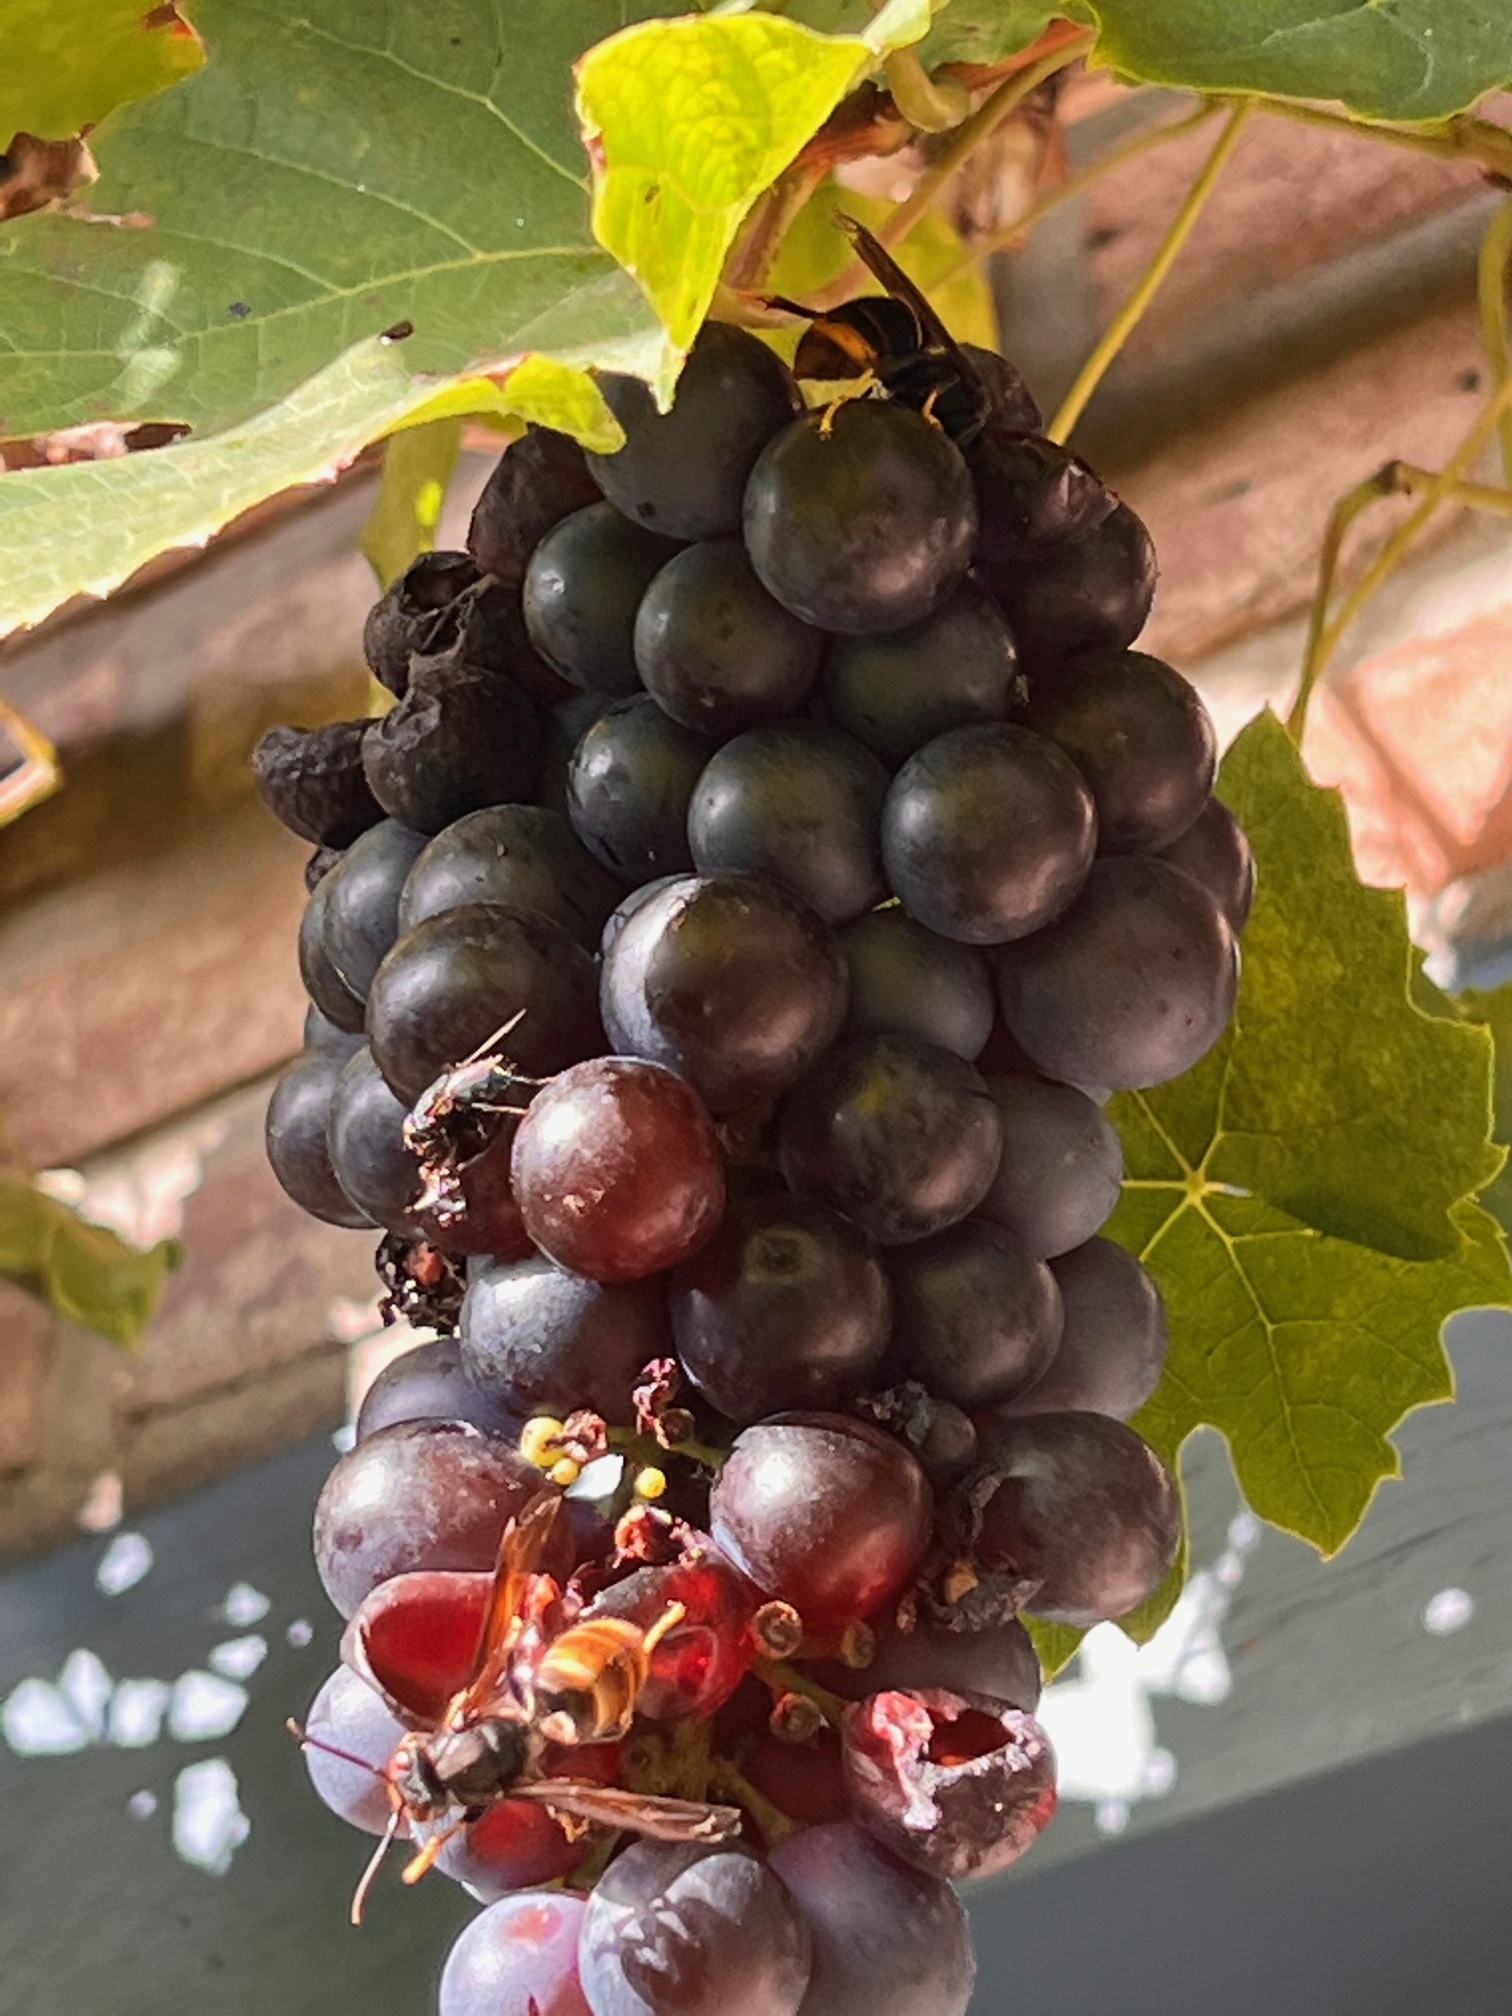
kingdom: Animalia
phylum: Arthropoda
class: Insecta
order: Hymenoptera
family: Vespidae
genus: Vespa
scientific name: Vespa velutina
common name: Asian hornet
